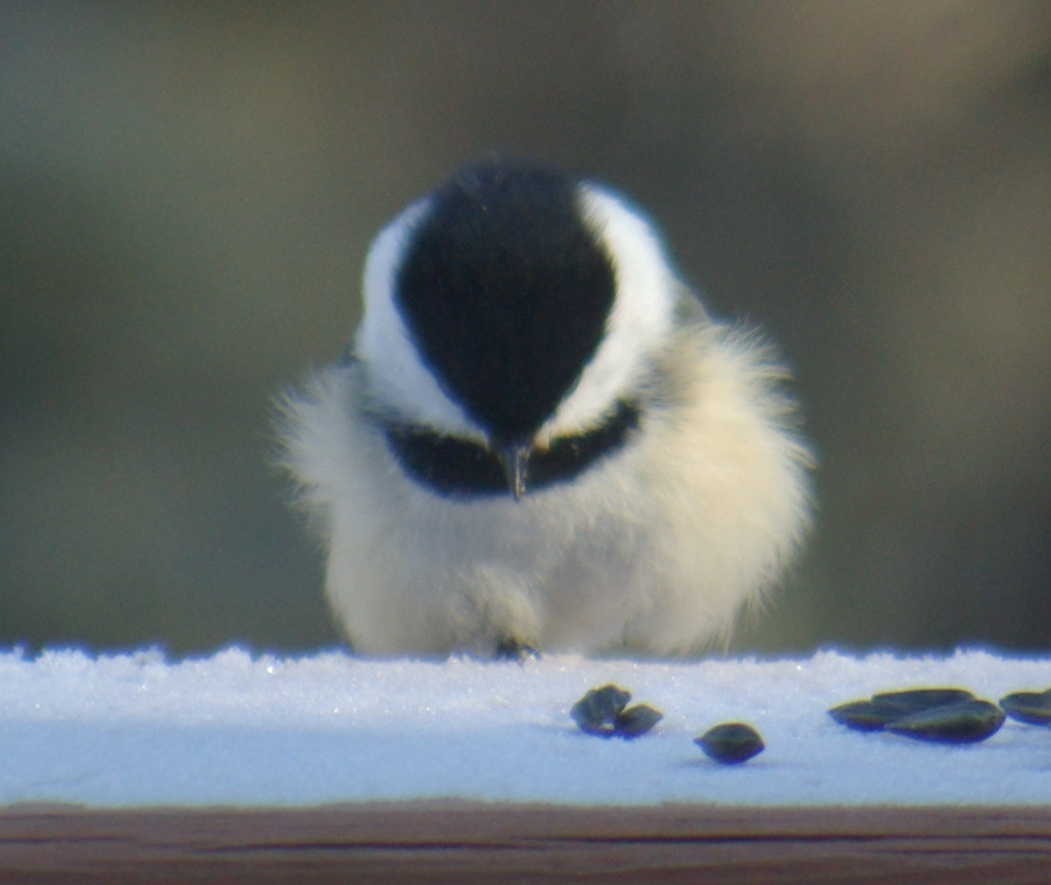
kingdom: Animalia
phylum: Chordata
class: Aves
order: Passeriformes
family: Paridae
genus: Poecile
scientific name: Poecile atricapillus
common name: Black-capped chickadee
